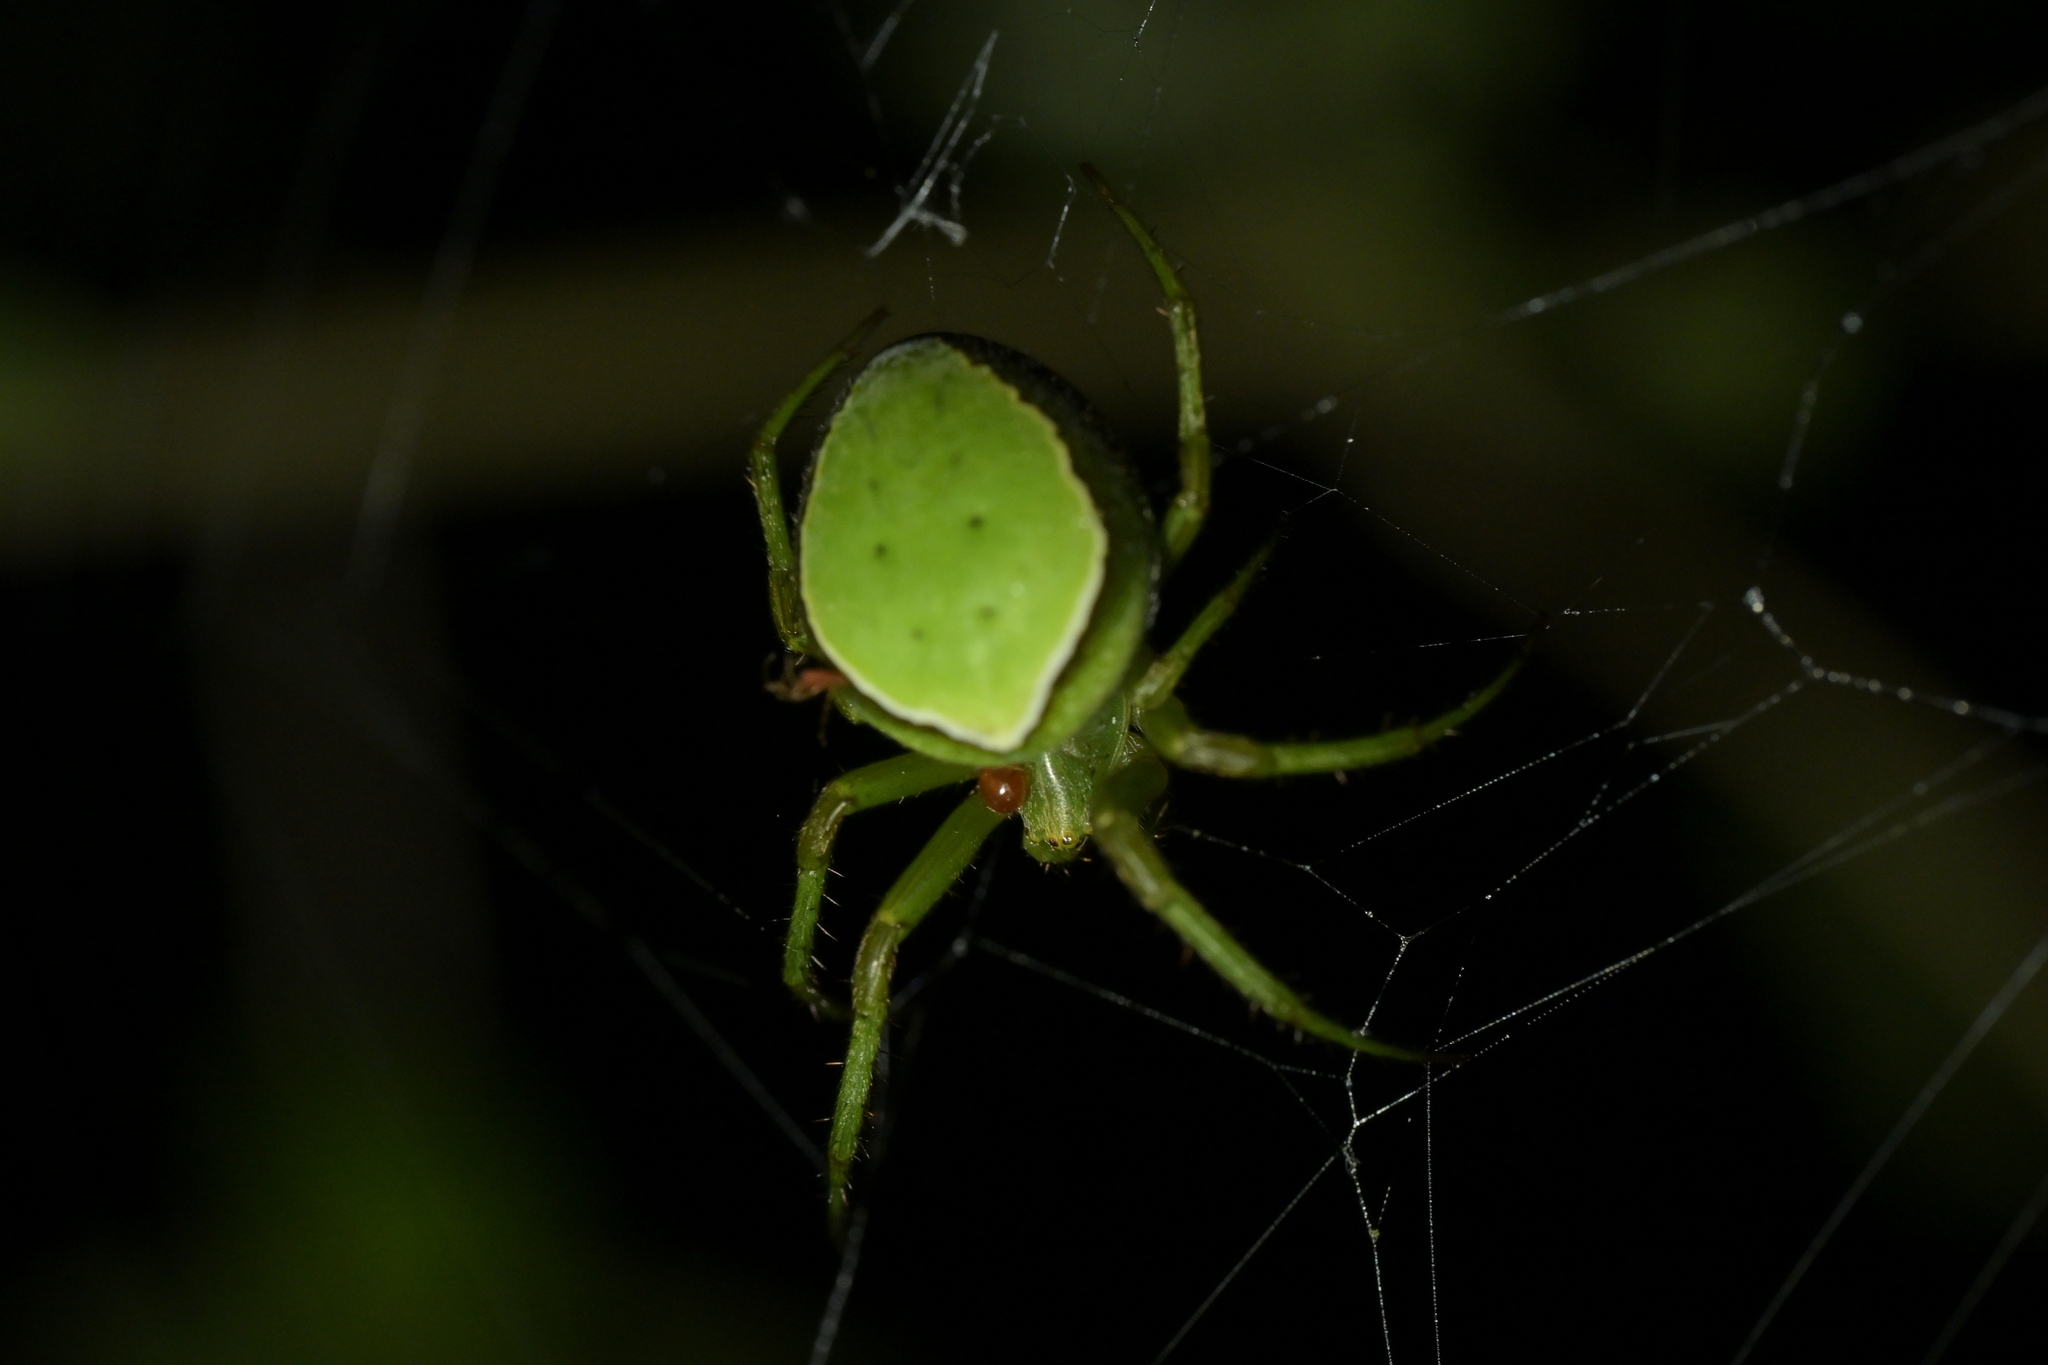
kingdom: Animalia
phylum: Arthropoda
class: Arachnida
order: Araneae
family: Araneidae
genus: Colaranea
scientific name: Colaranea viriditas
